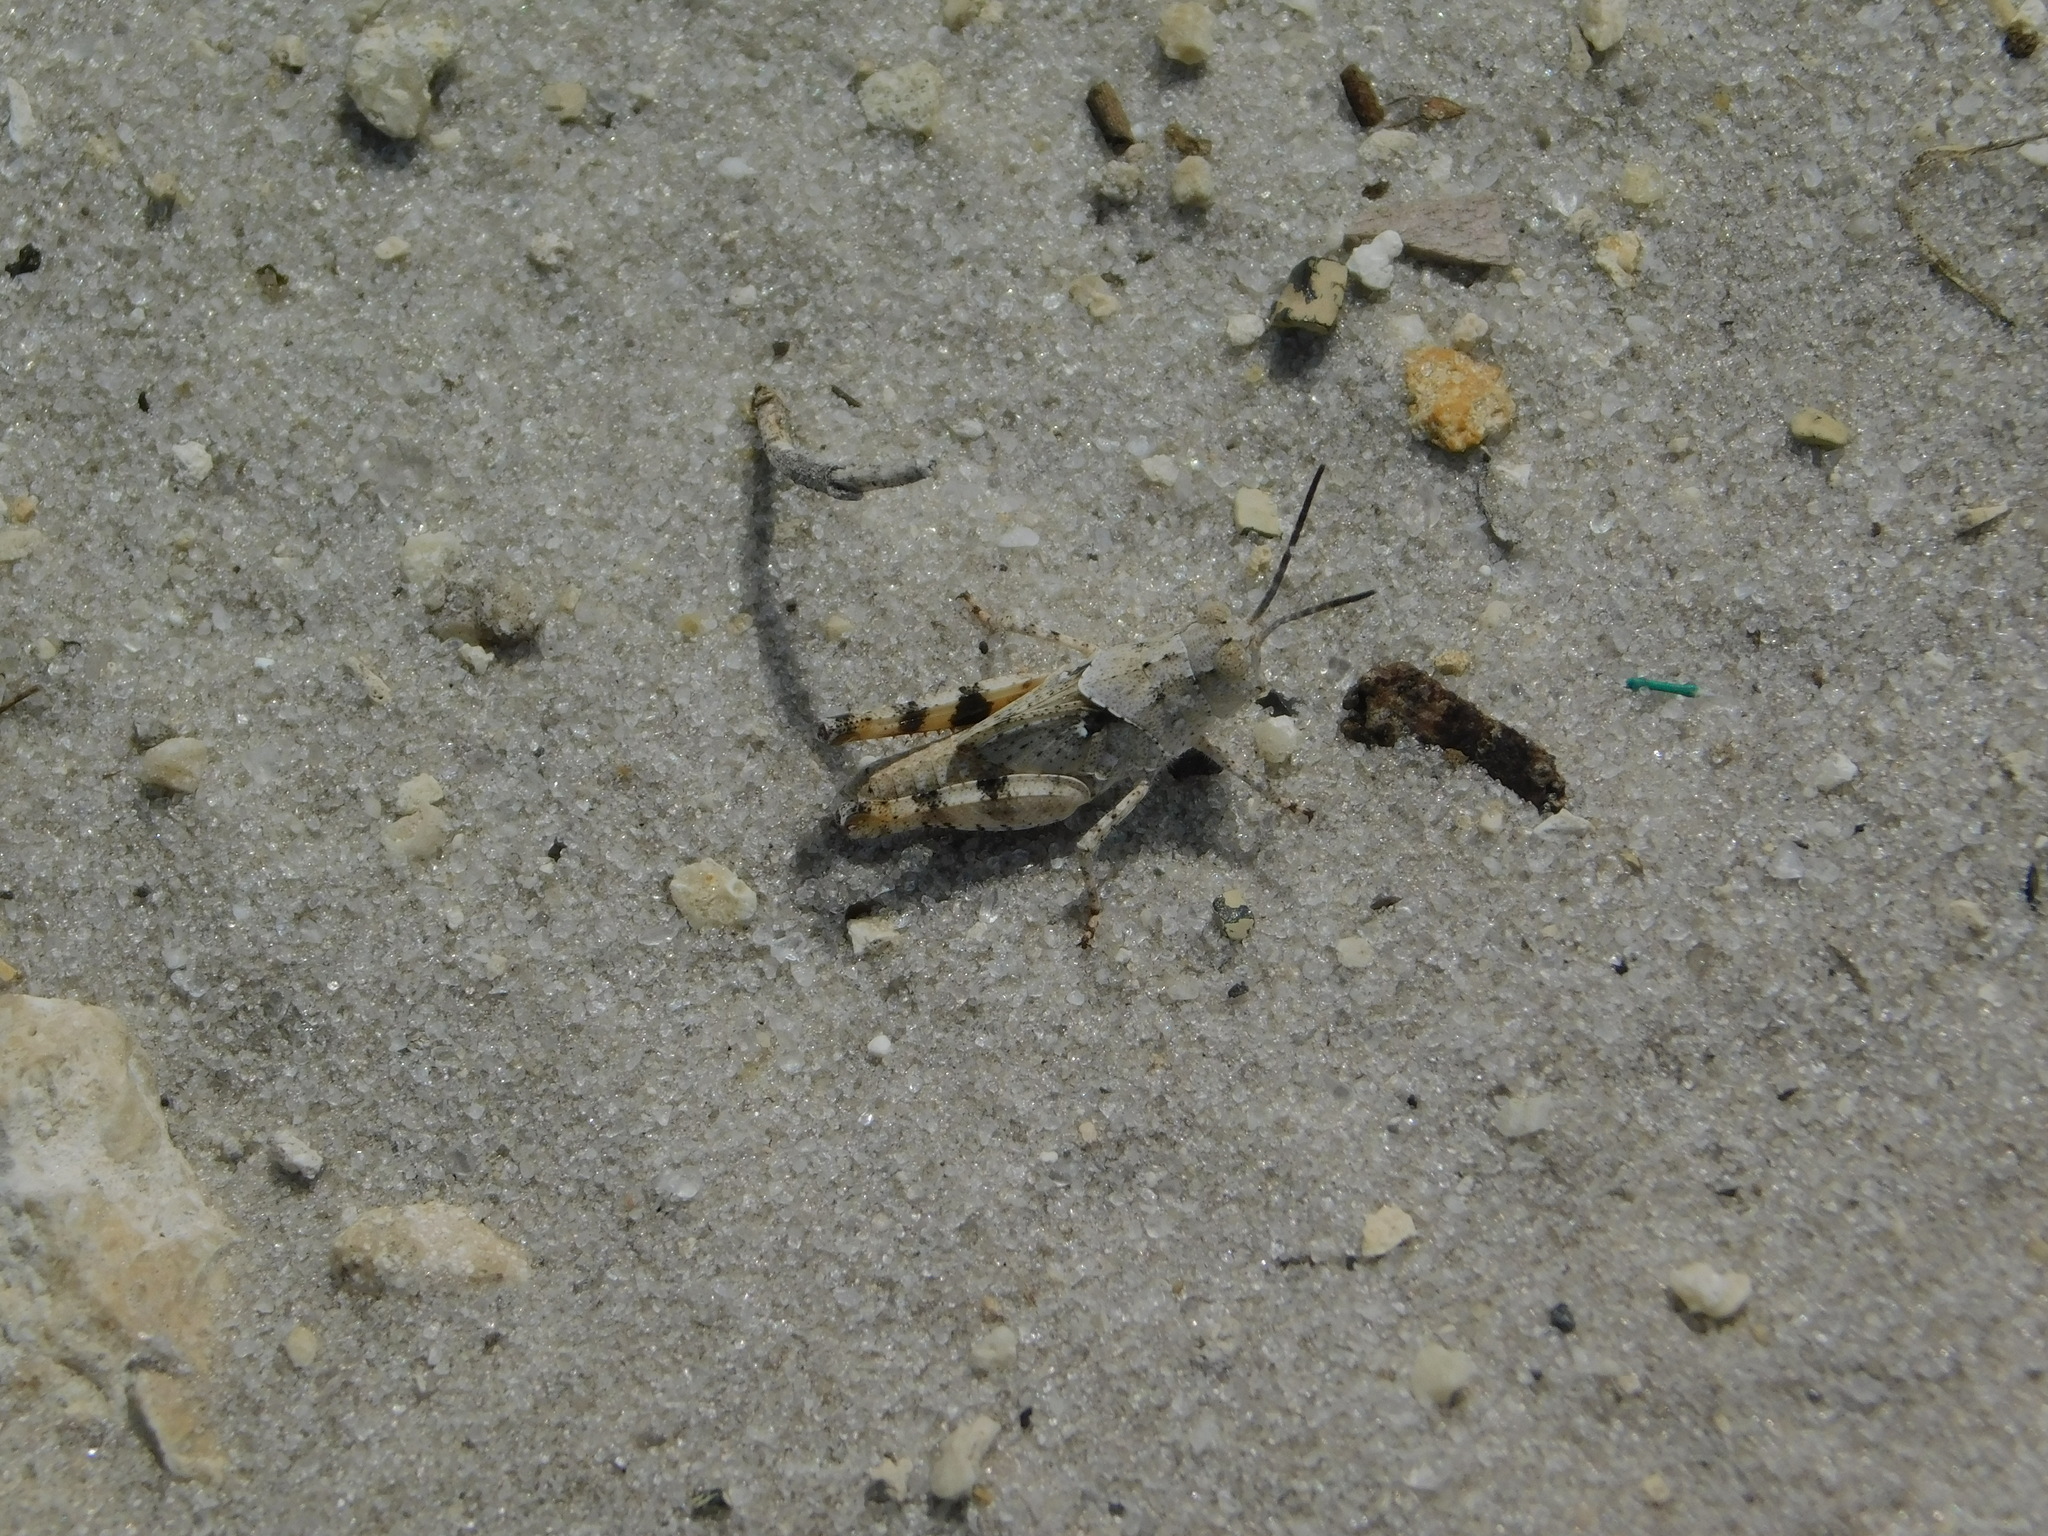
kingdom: Animalia
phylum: Arthropoda
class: Insecta
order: Orthoptera
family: Acrididae
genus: Spharagemon
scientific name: Spharagemon marmoratum
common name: Marbled grasshopper
